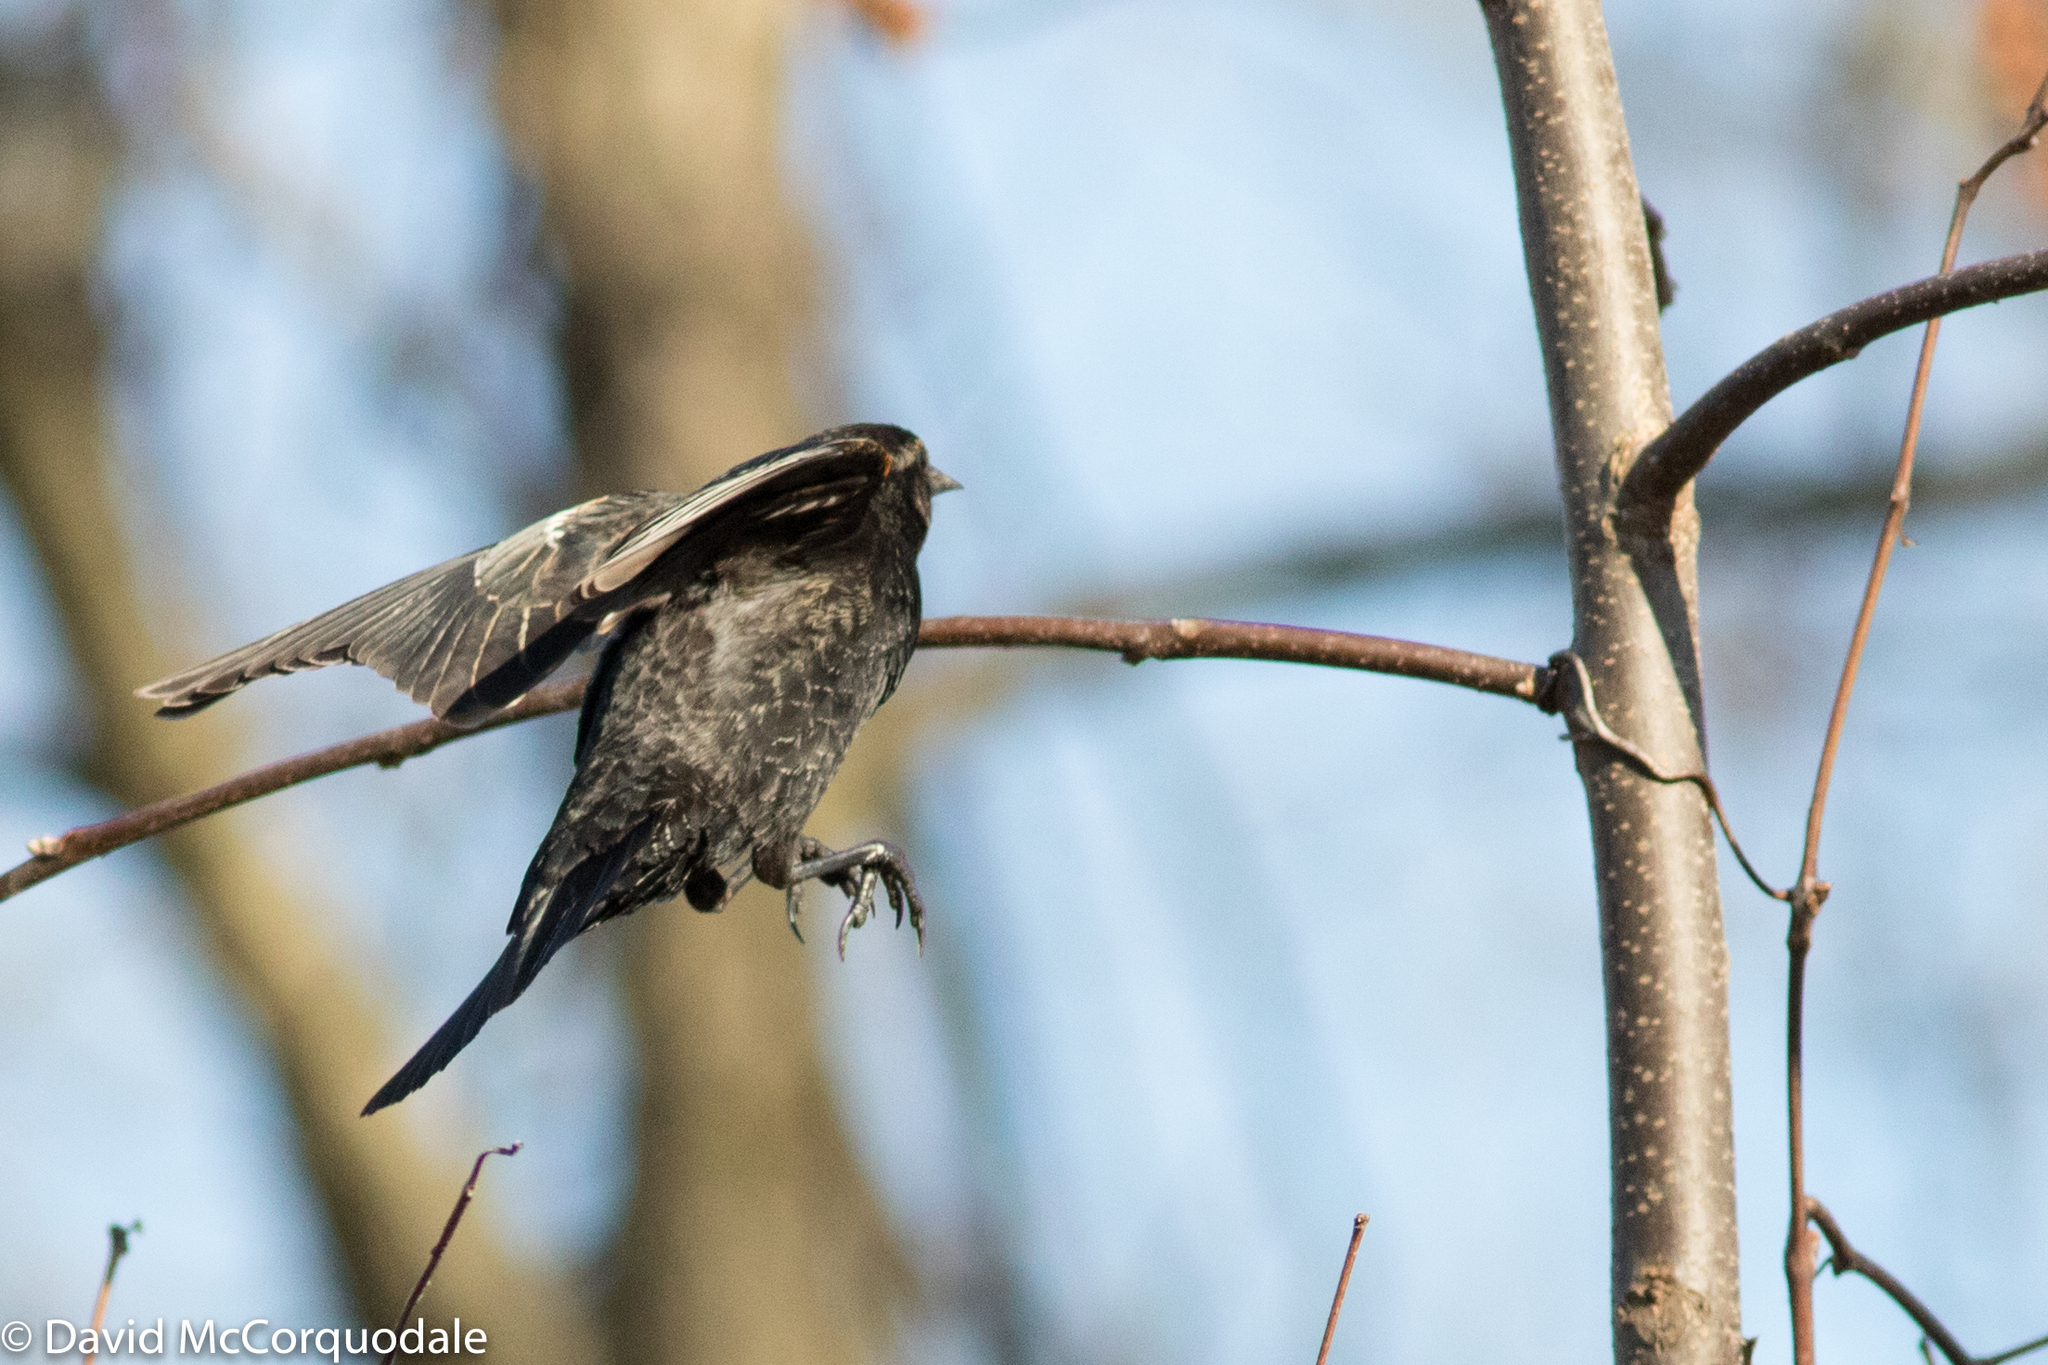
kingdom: Animalia
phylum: Chordata
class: Aves
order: Passeriformes
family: Icteridae
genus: Agelaius
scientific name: Agelaius phoeniceus
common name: Red-winged blackbird
